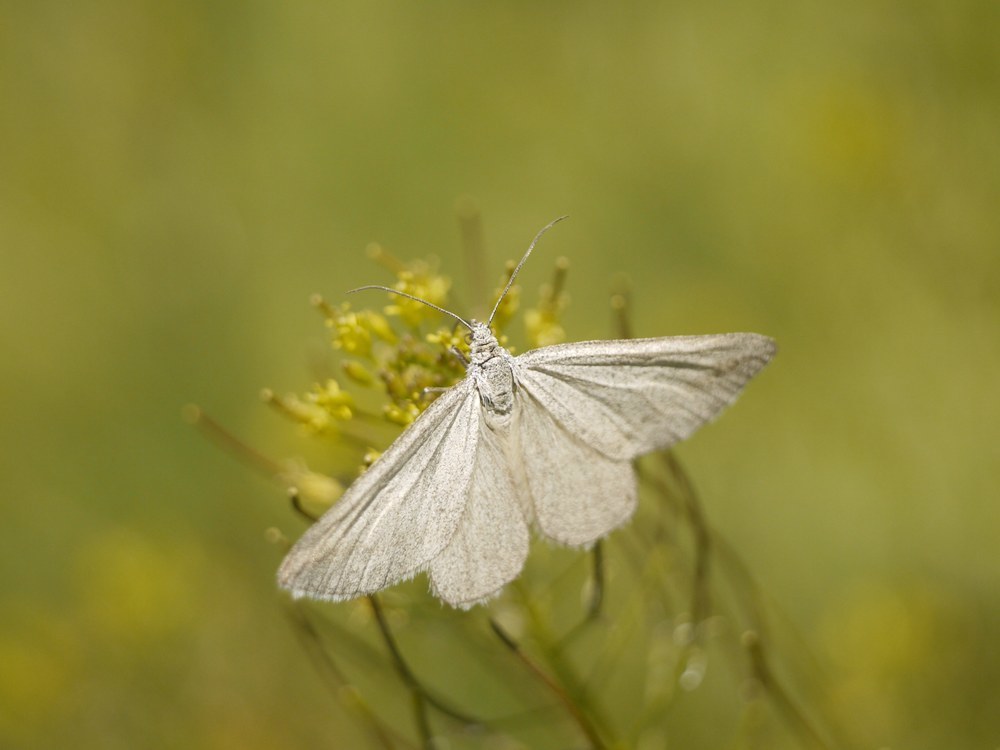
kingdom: Animalia
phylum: Arthropoda
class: Insecta
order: Lepidoptera
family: Geometridae
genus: Lithostege
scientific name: Lithostege griseata
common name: Grey carpet
